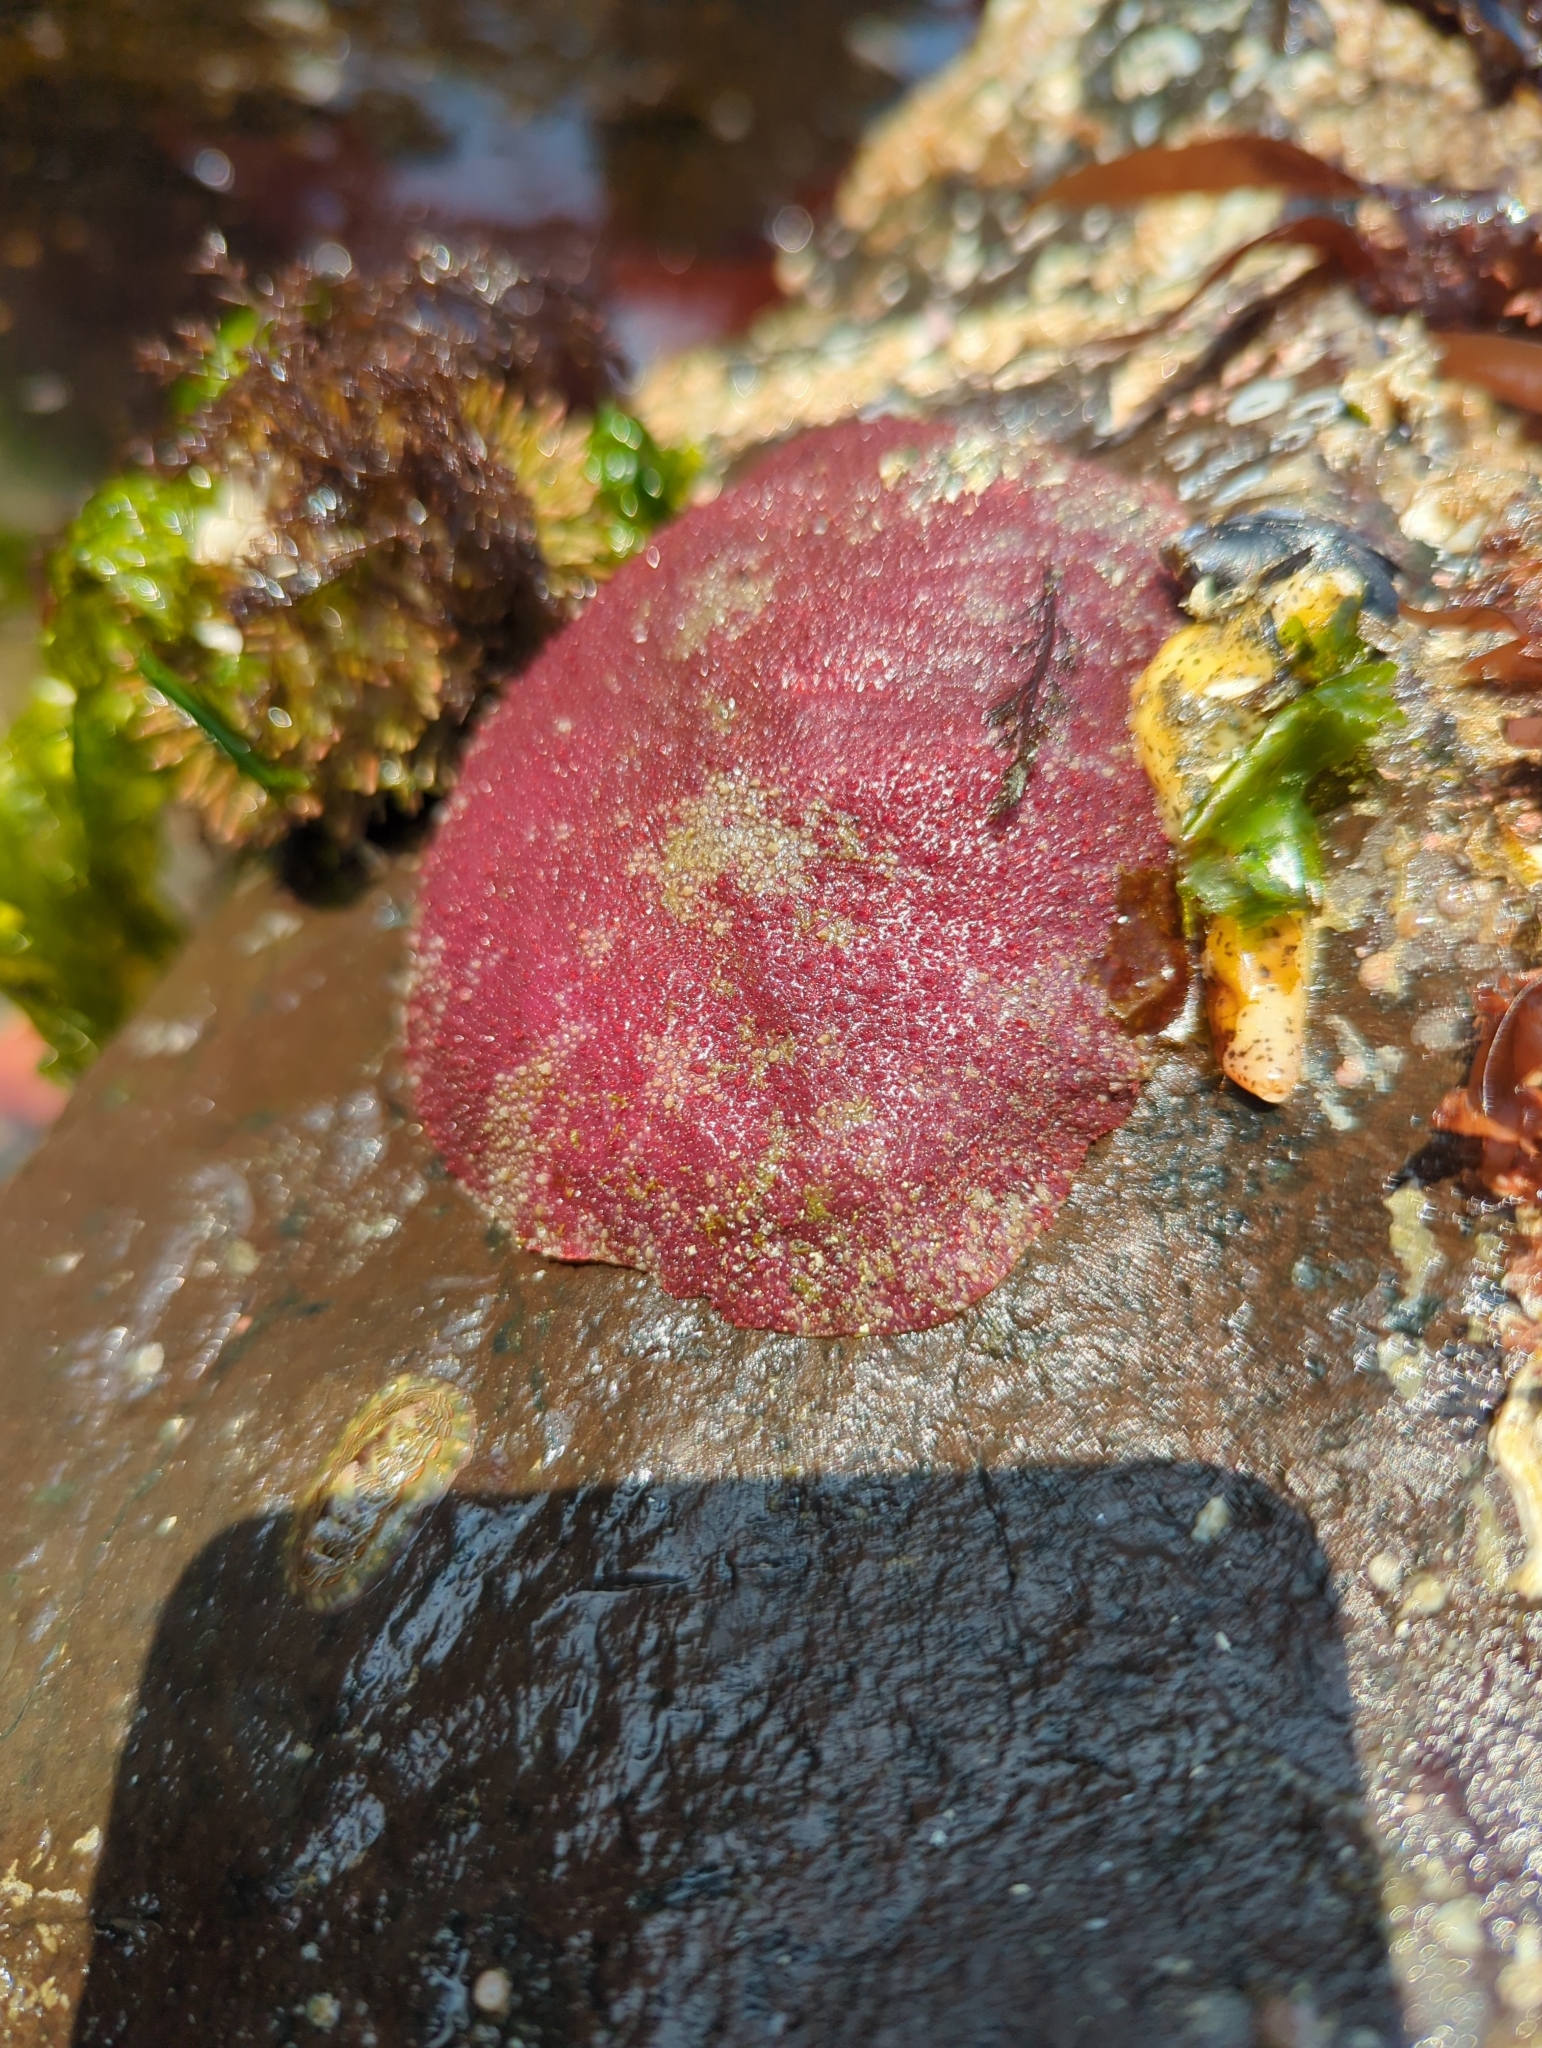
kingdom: Animalia
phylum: Mollusca
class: Polyplacophora
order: Chitonida
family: Acanthochitonidae
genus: Cryptochiton
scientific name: Cryptochiton stelleri
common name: Giant pacific chiton
